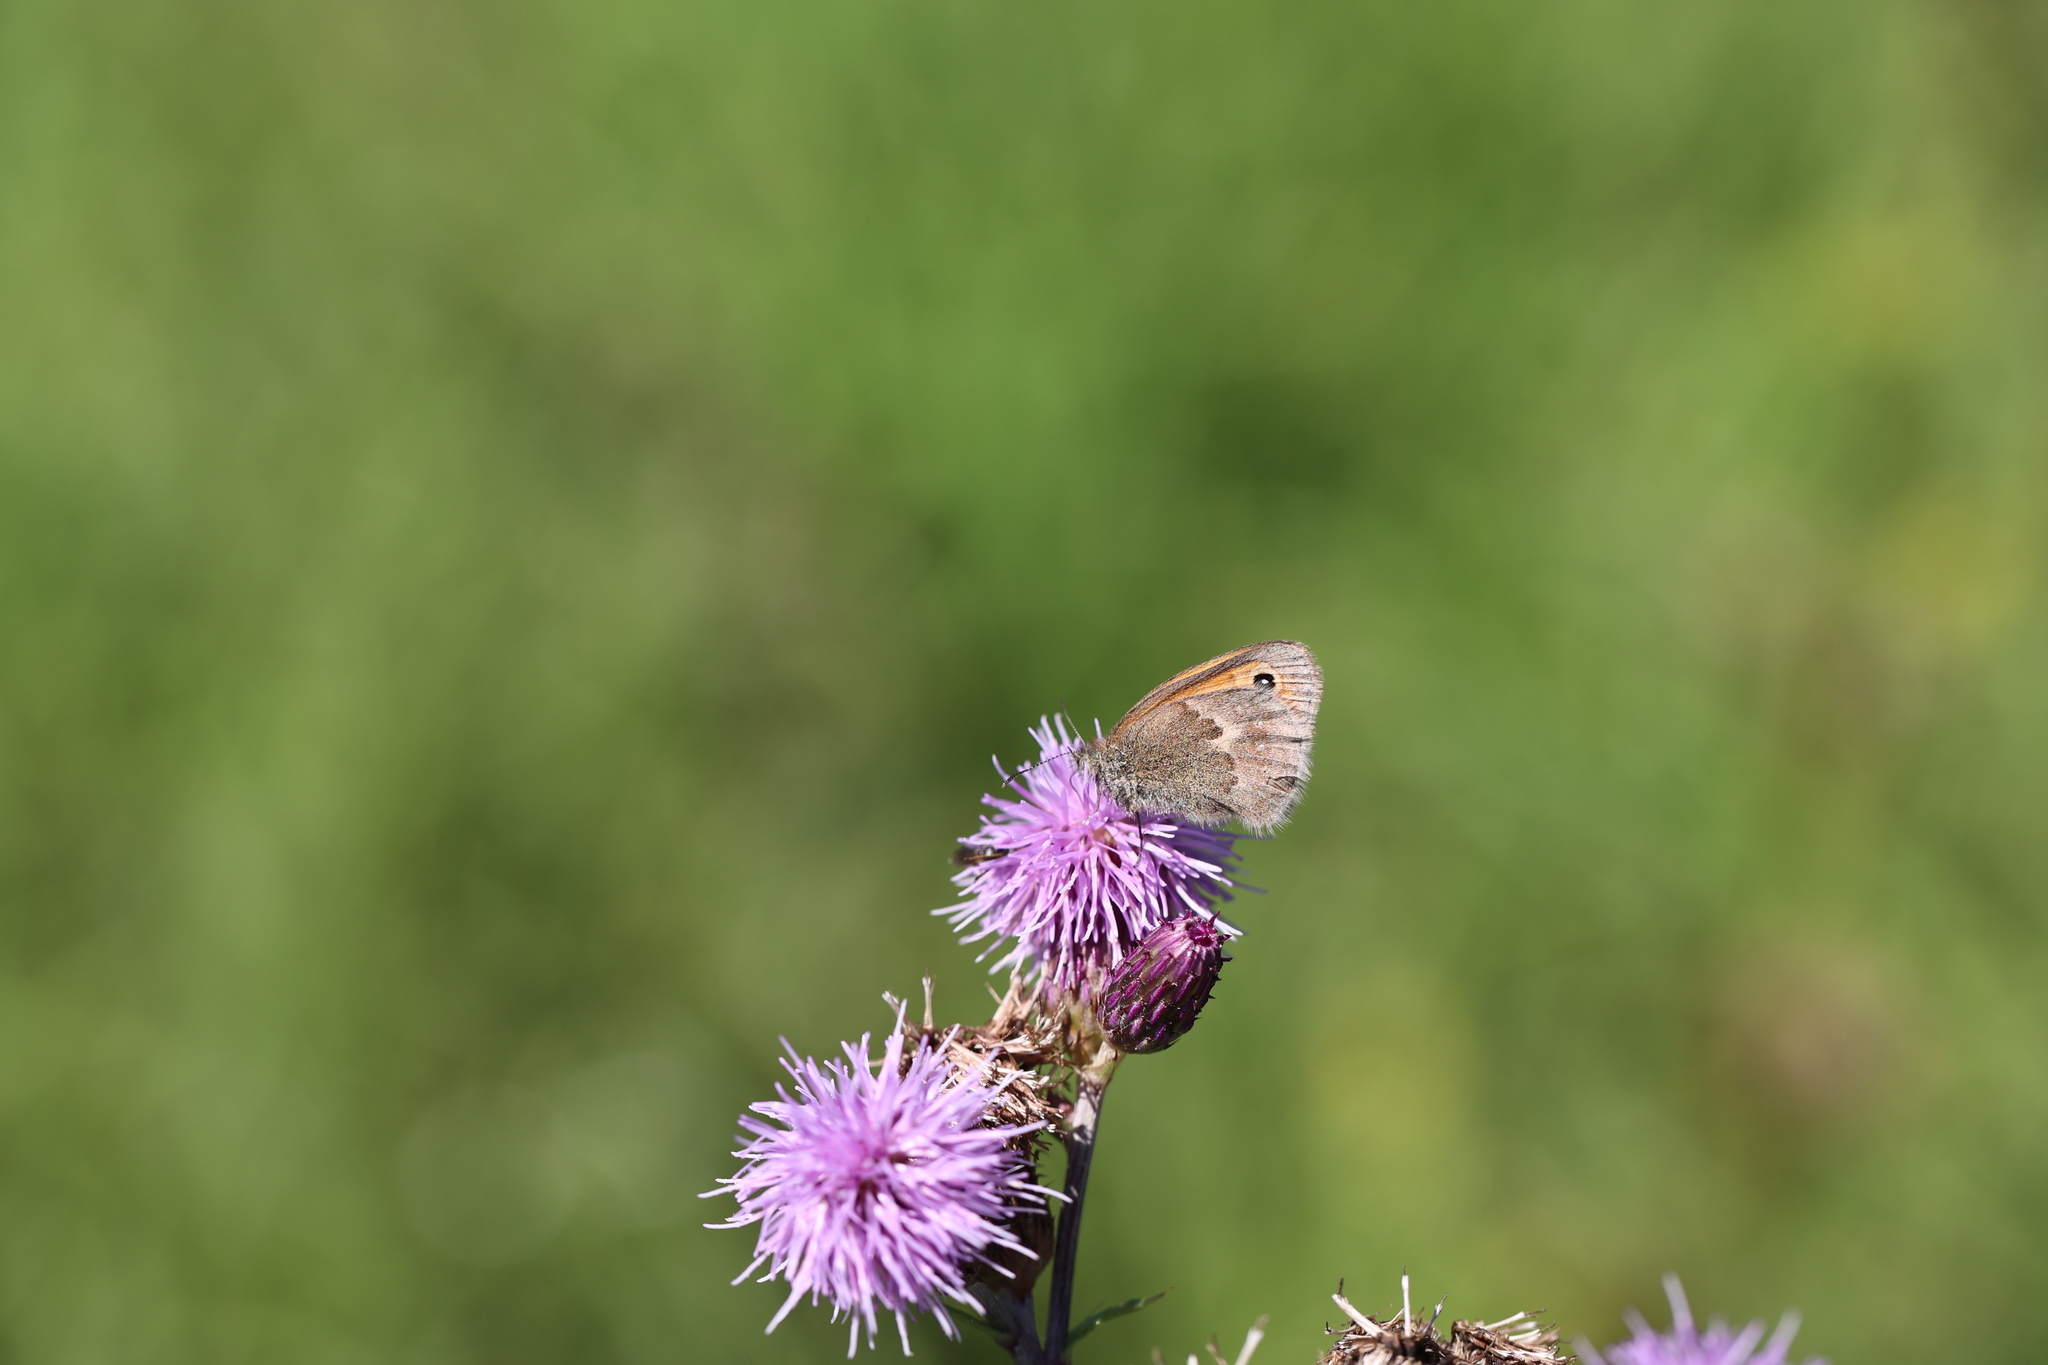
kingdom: Animalia
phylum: Arthropoda
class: Insecta
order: Lepidoptera
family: Nymphalidae
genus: Coenonympha
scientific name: Coenonympha pamphilus
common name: Small heath
